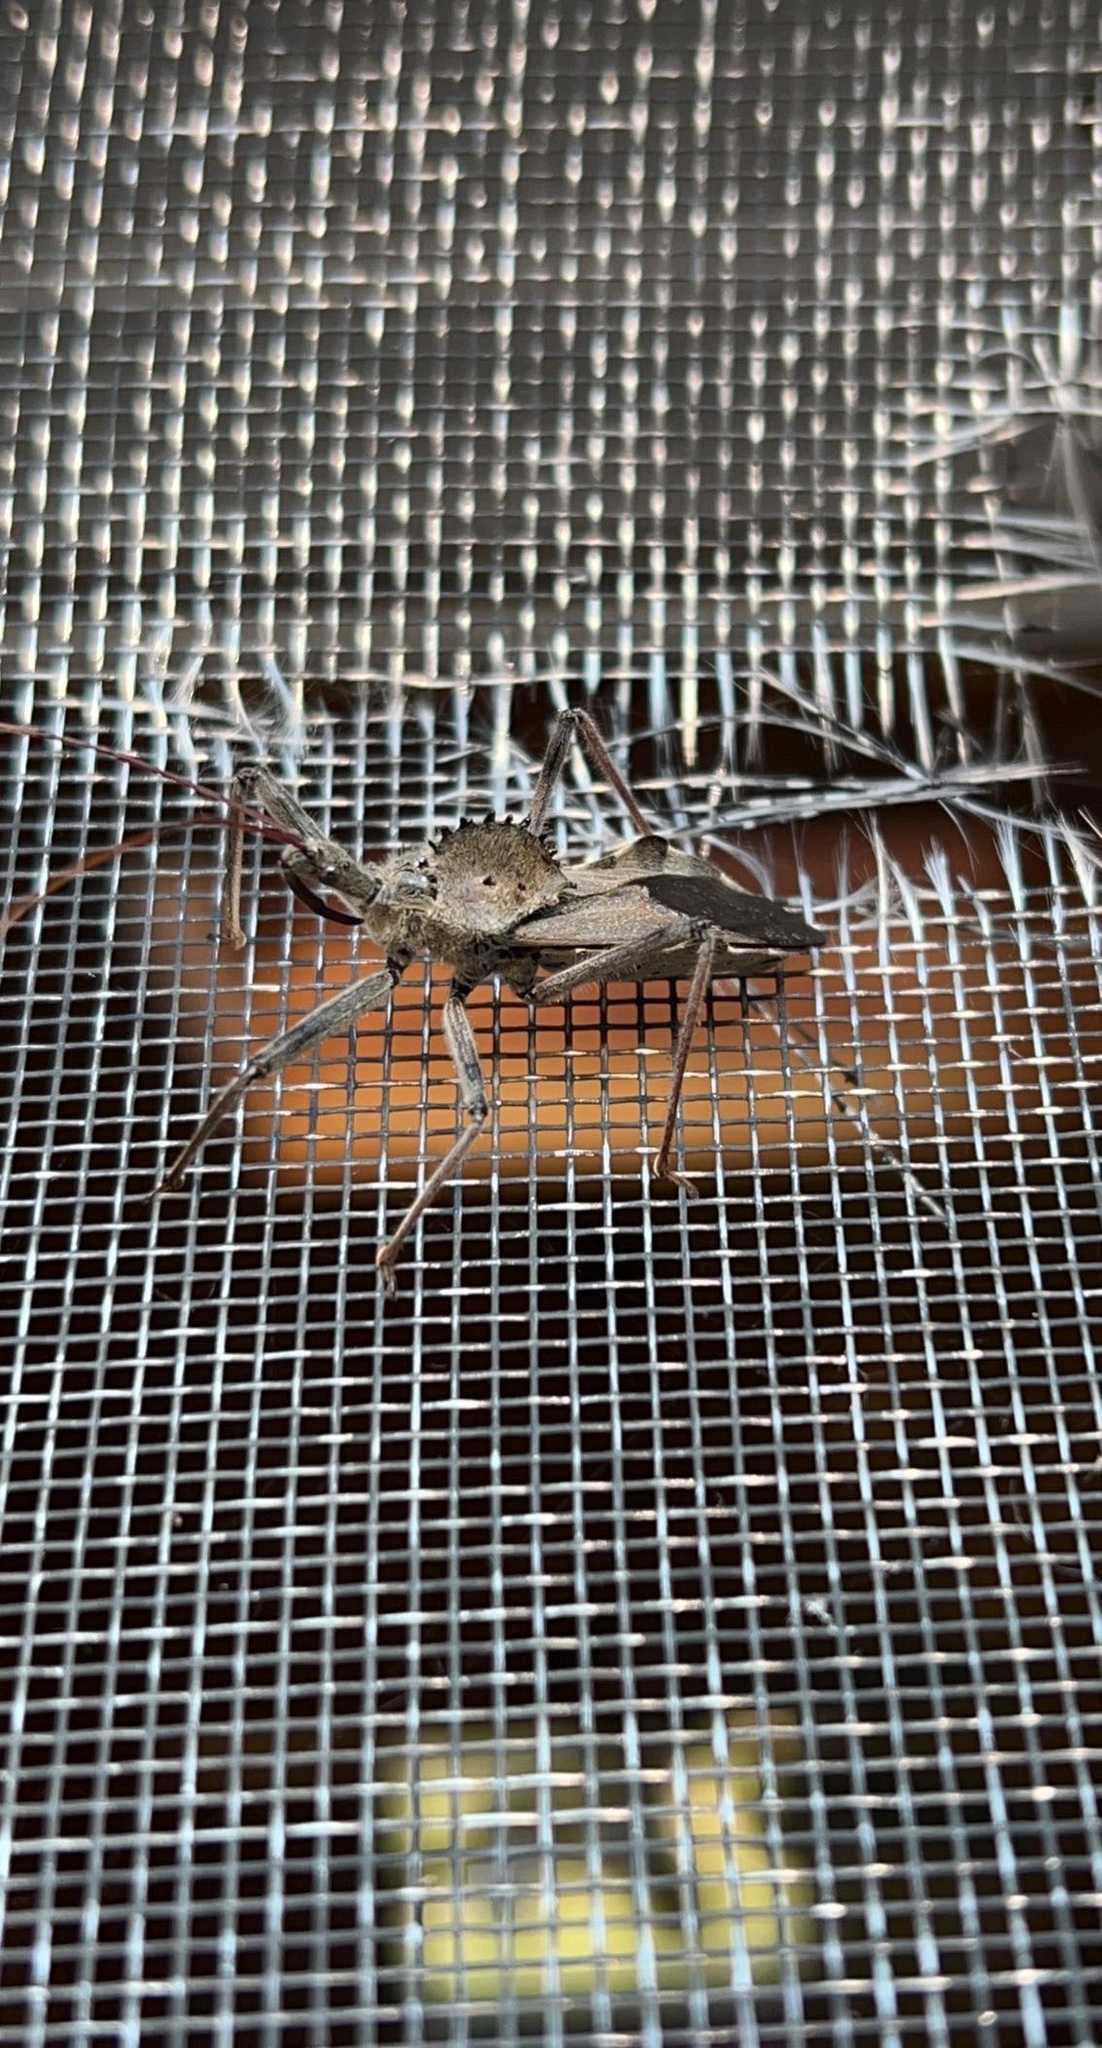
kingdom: Animalia
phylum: Arthropoda
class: Insecta
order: Hemiptera
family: Reduviidae
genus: Arilus
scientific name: Arilus cristatus
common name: North american wheel bug
